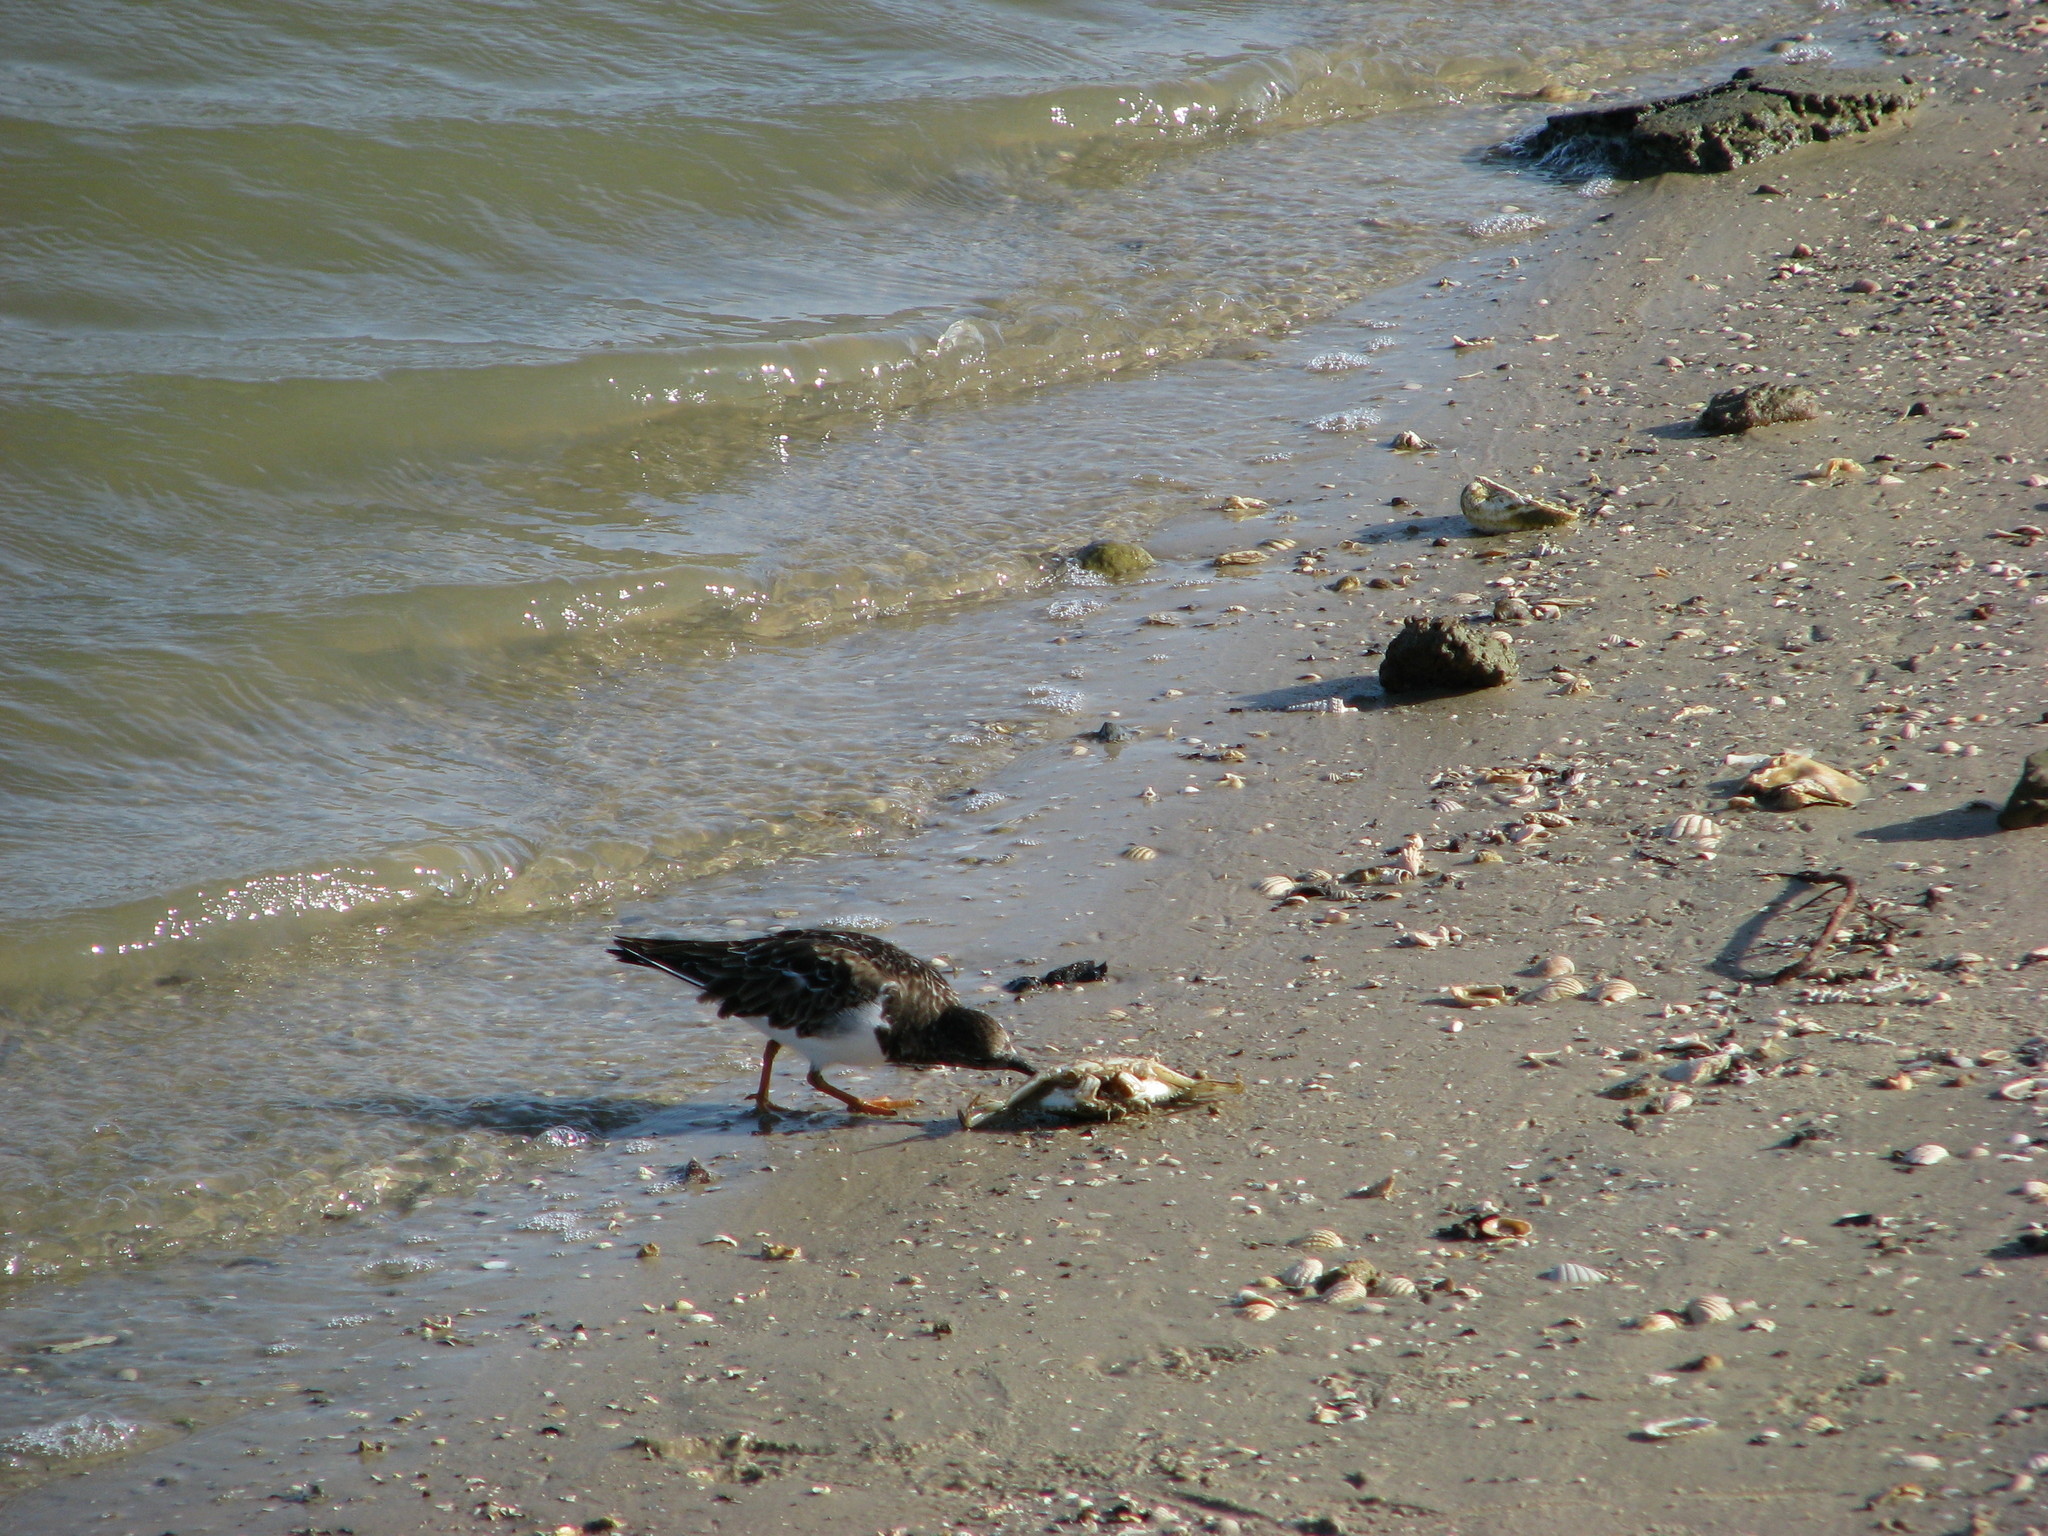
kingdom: Animalia
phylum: Chordata
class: Aves
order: Charadriiformes
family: Scolopacidae
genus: Arenaria
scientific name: Arenaria interpres
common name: Ruddy turnstone
